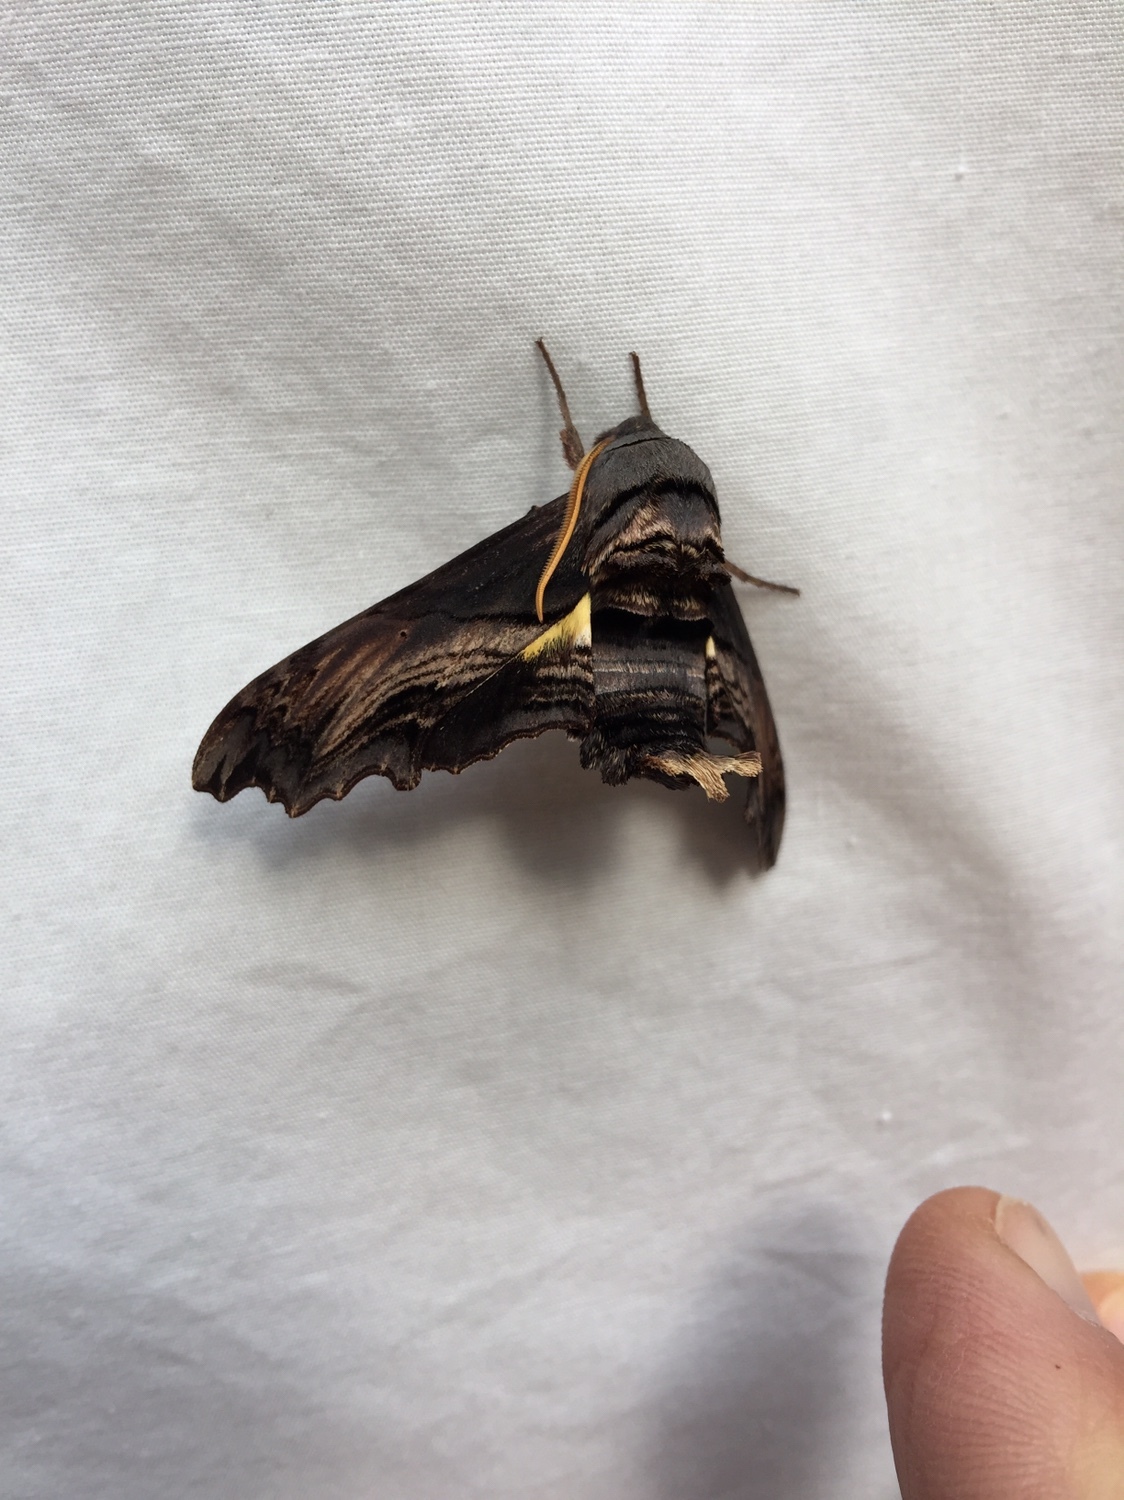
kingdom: Animalia
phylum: Arthropoda
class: Insecta
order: Lepidoptera
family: Sphingidae
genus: Sphecodina
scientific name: Sphecodina abbottii
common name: Abbott's sphinx
